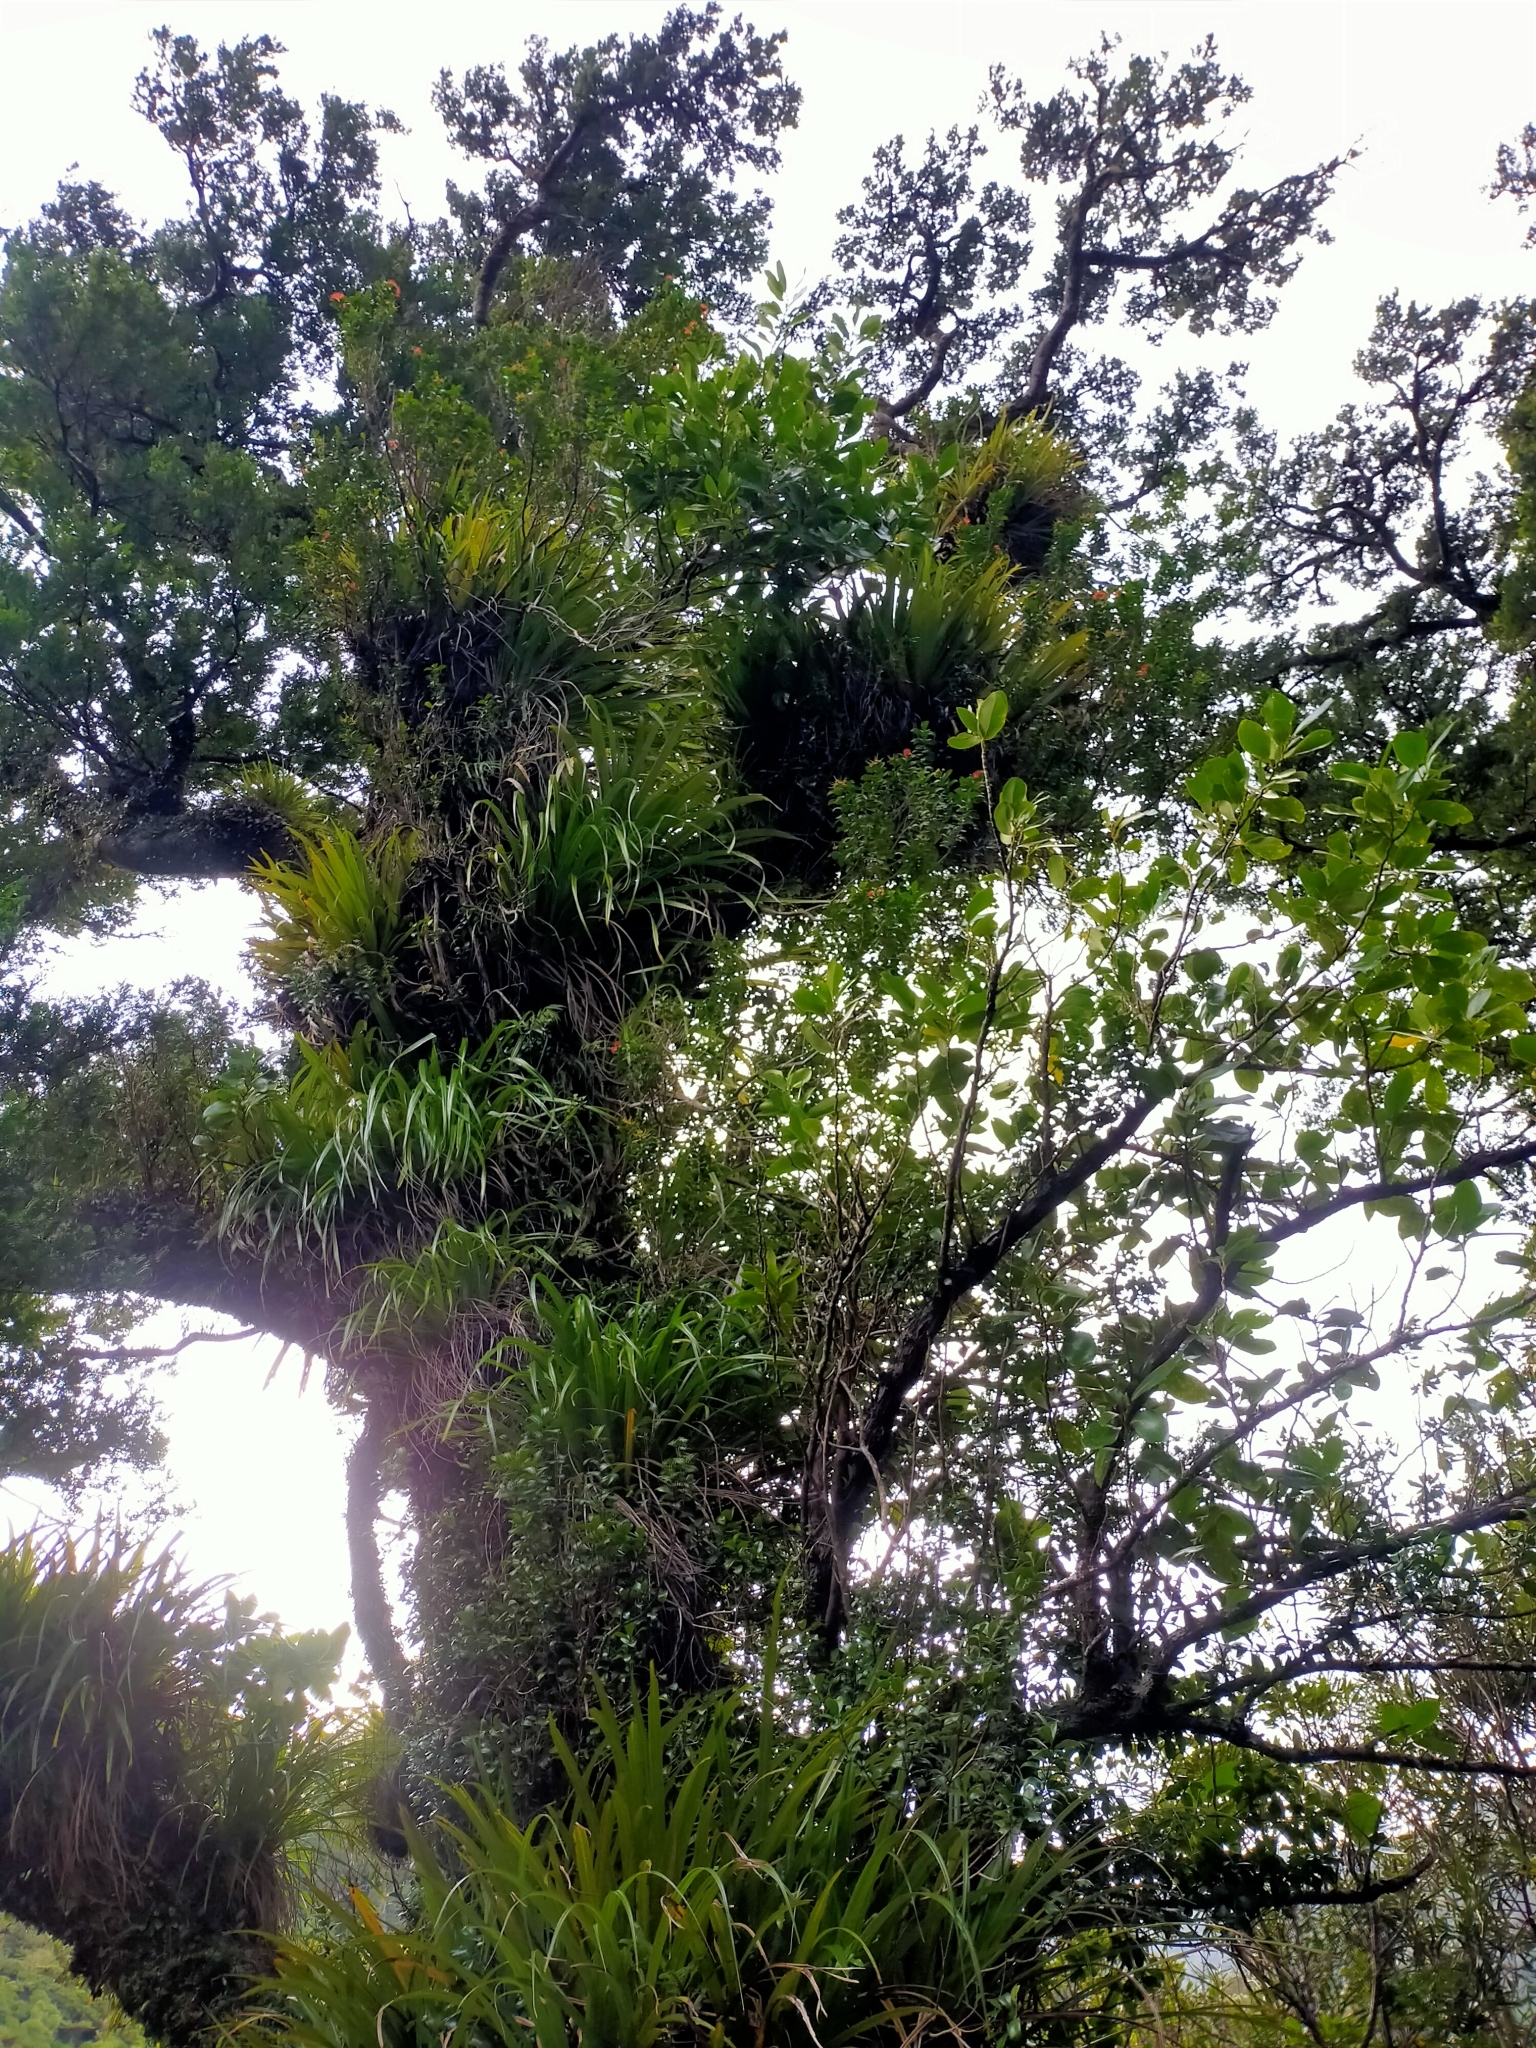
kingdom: Plantae
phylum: Tracheophyta
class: Magnoliopsida
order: Myrtales
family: Myrtaceae
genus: Metrosideros
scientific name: Metrosideros fulgens
